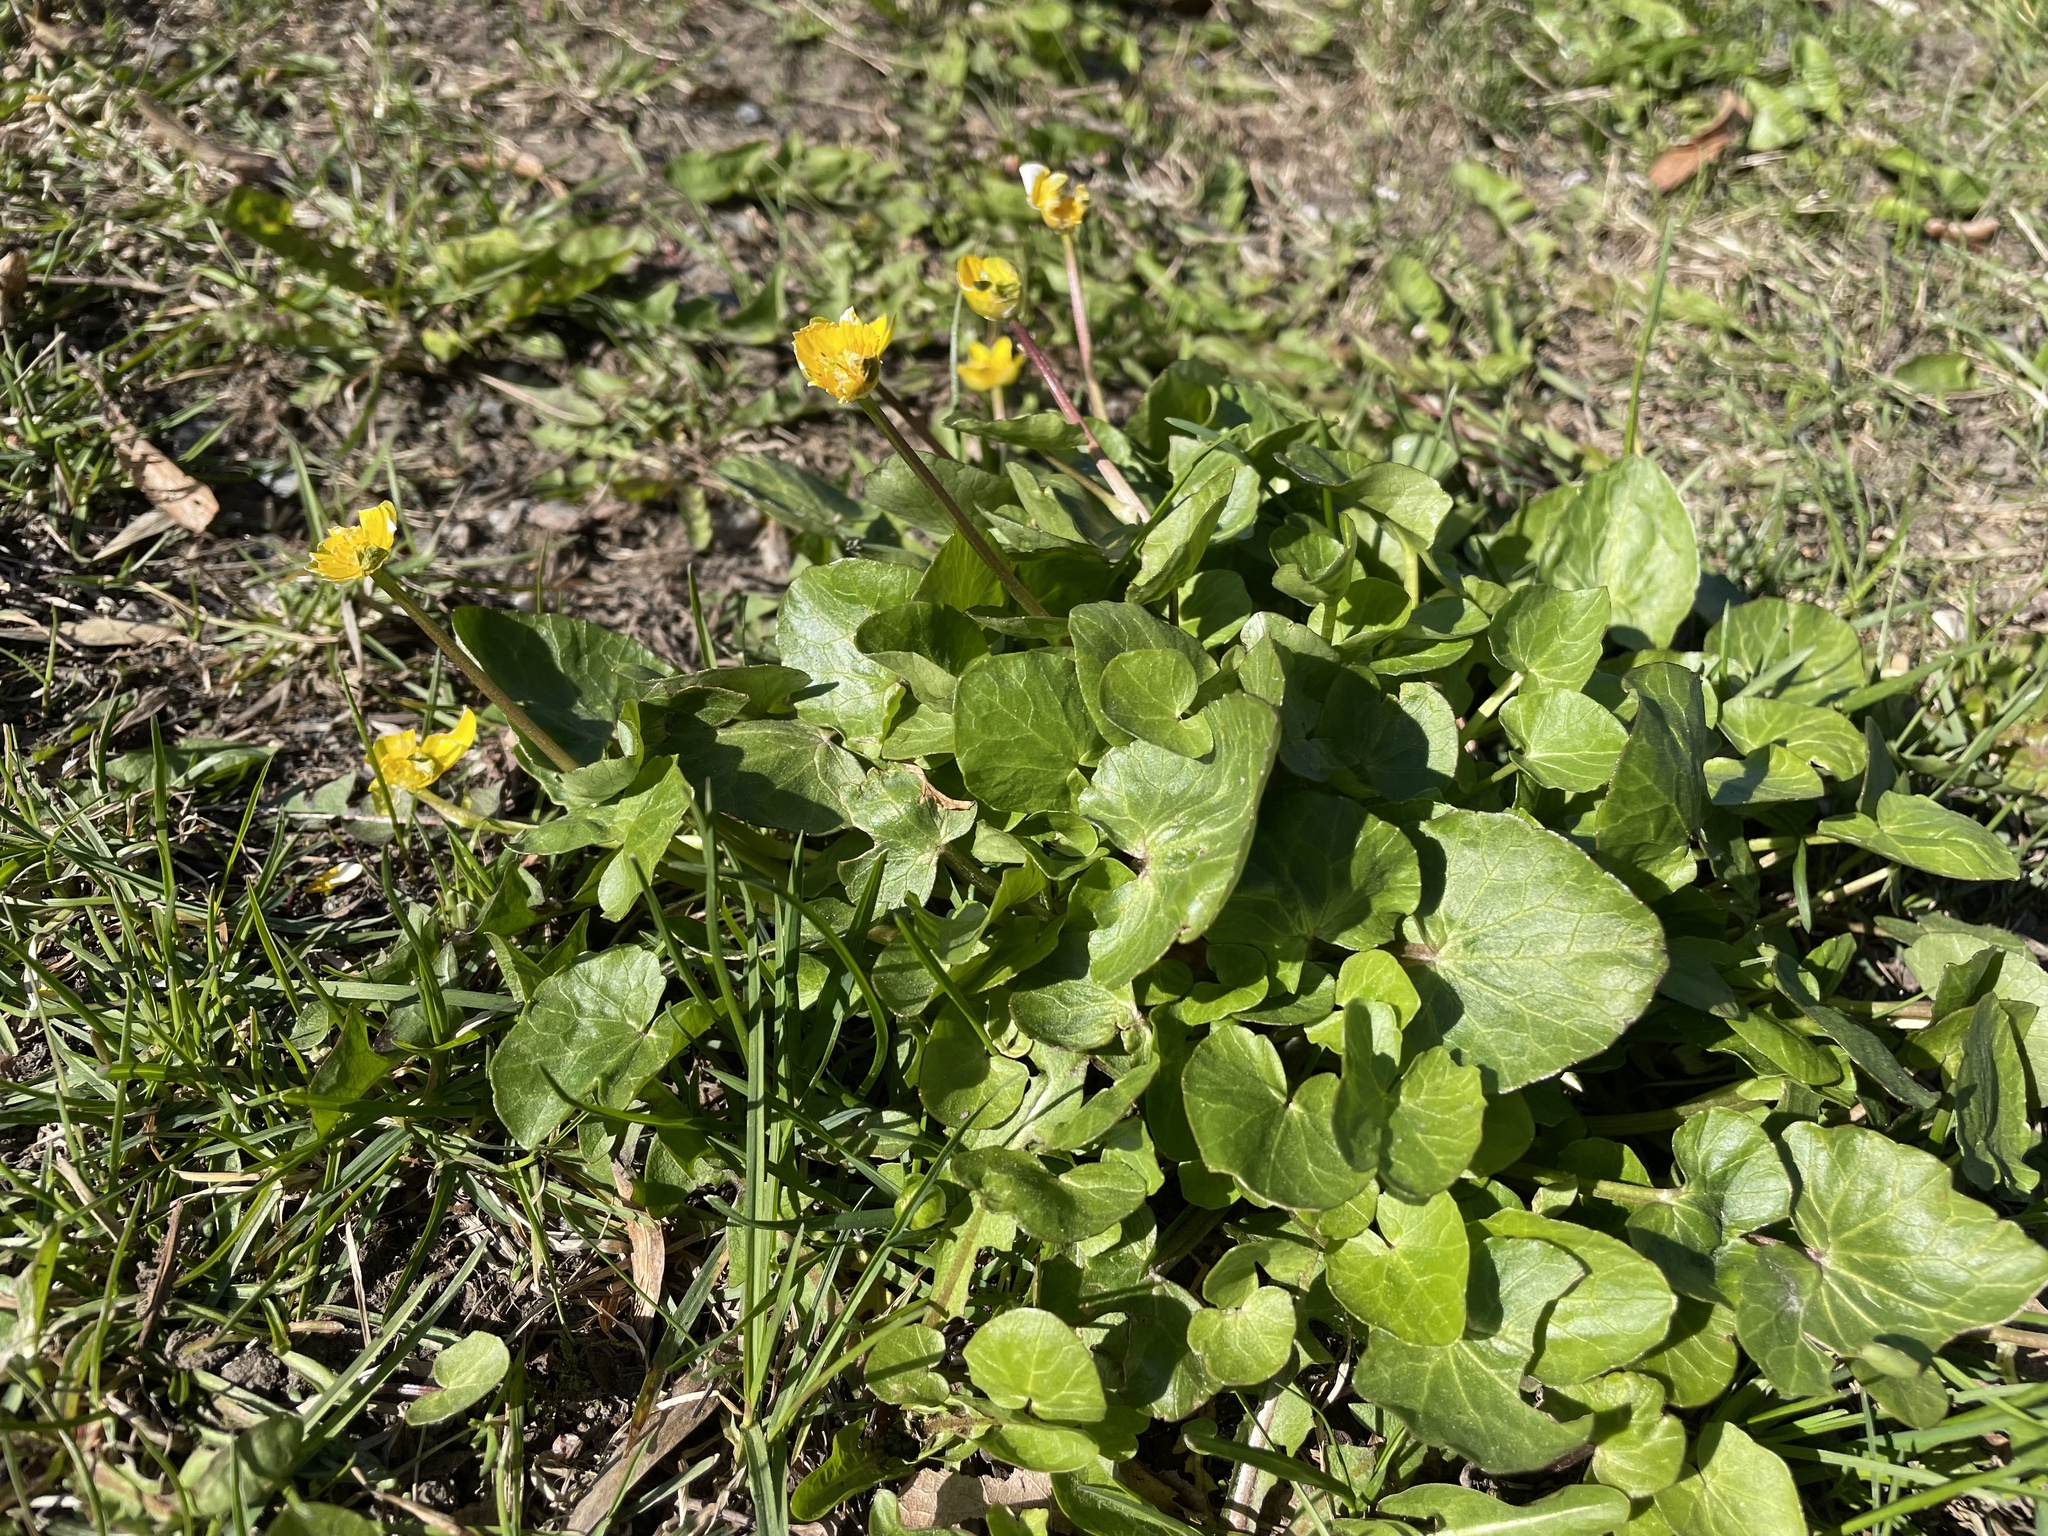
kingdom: Plantae
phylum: Tracheophyta
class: Magnoliopsida
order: Ranunculales
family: Ranunculaceae
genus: Ficaria
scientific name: Ficaria verna
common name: Lesser celandine
